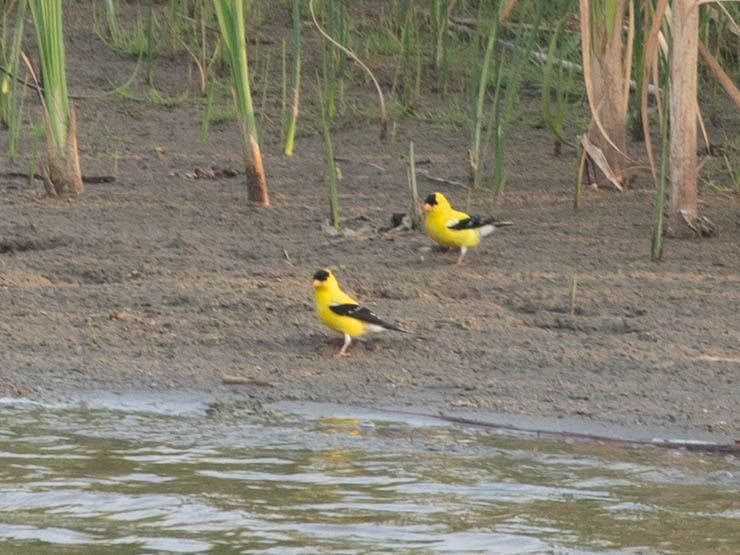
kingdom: Animalia
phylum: Chordata
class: Aves
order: Passeriformes
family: Fringillidae
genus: Spinus
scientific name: Spinus tristis
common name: American goldfinch
